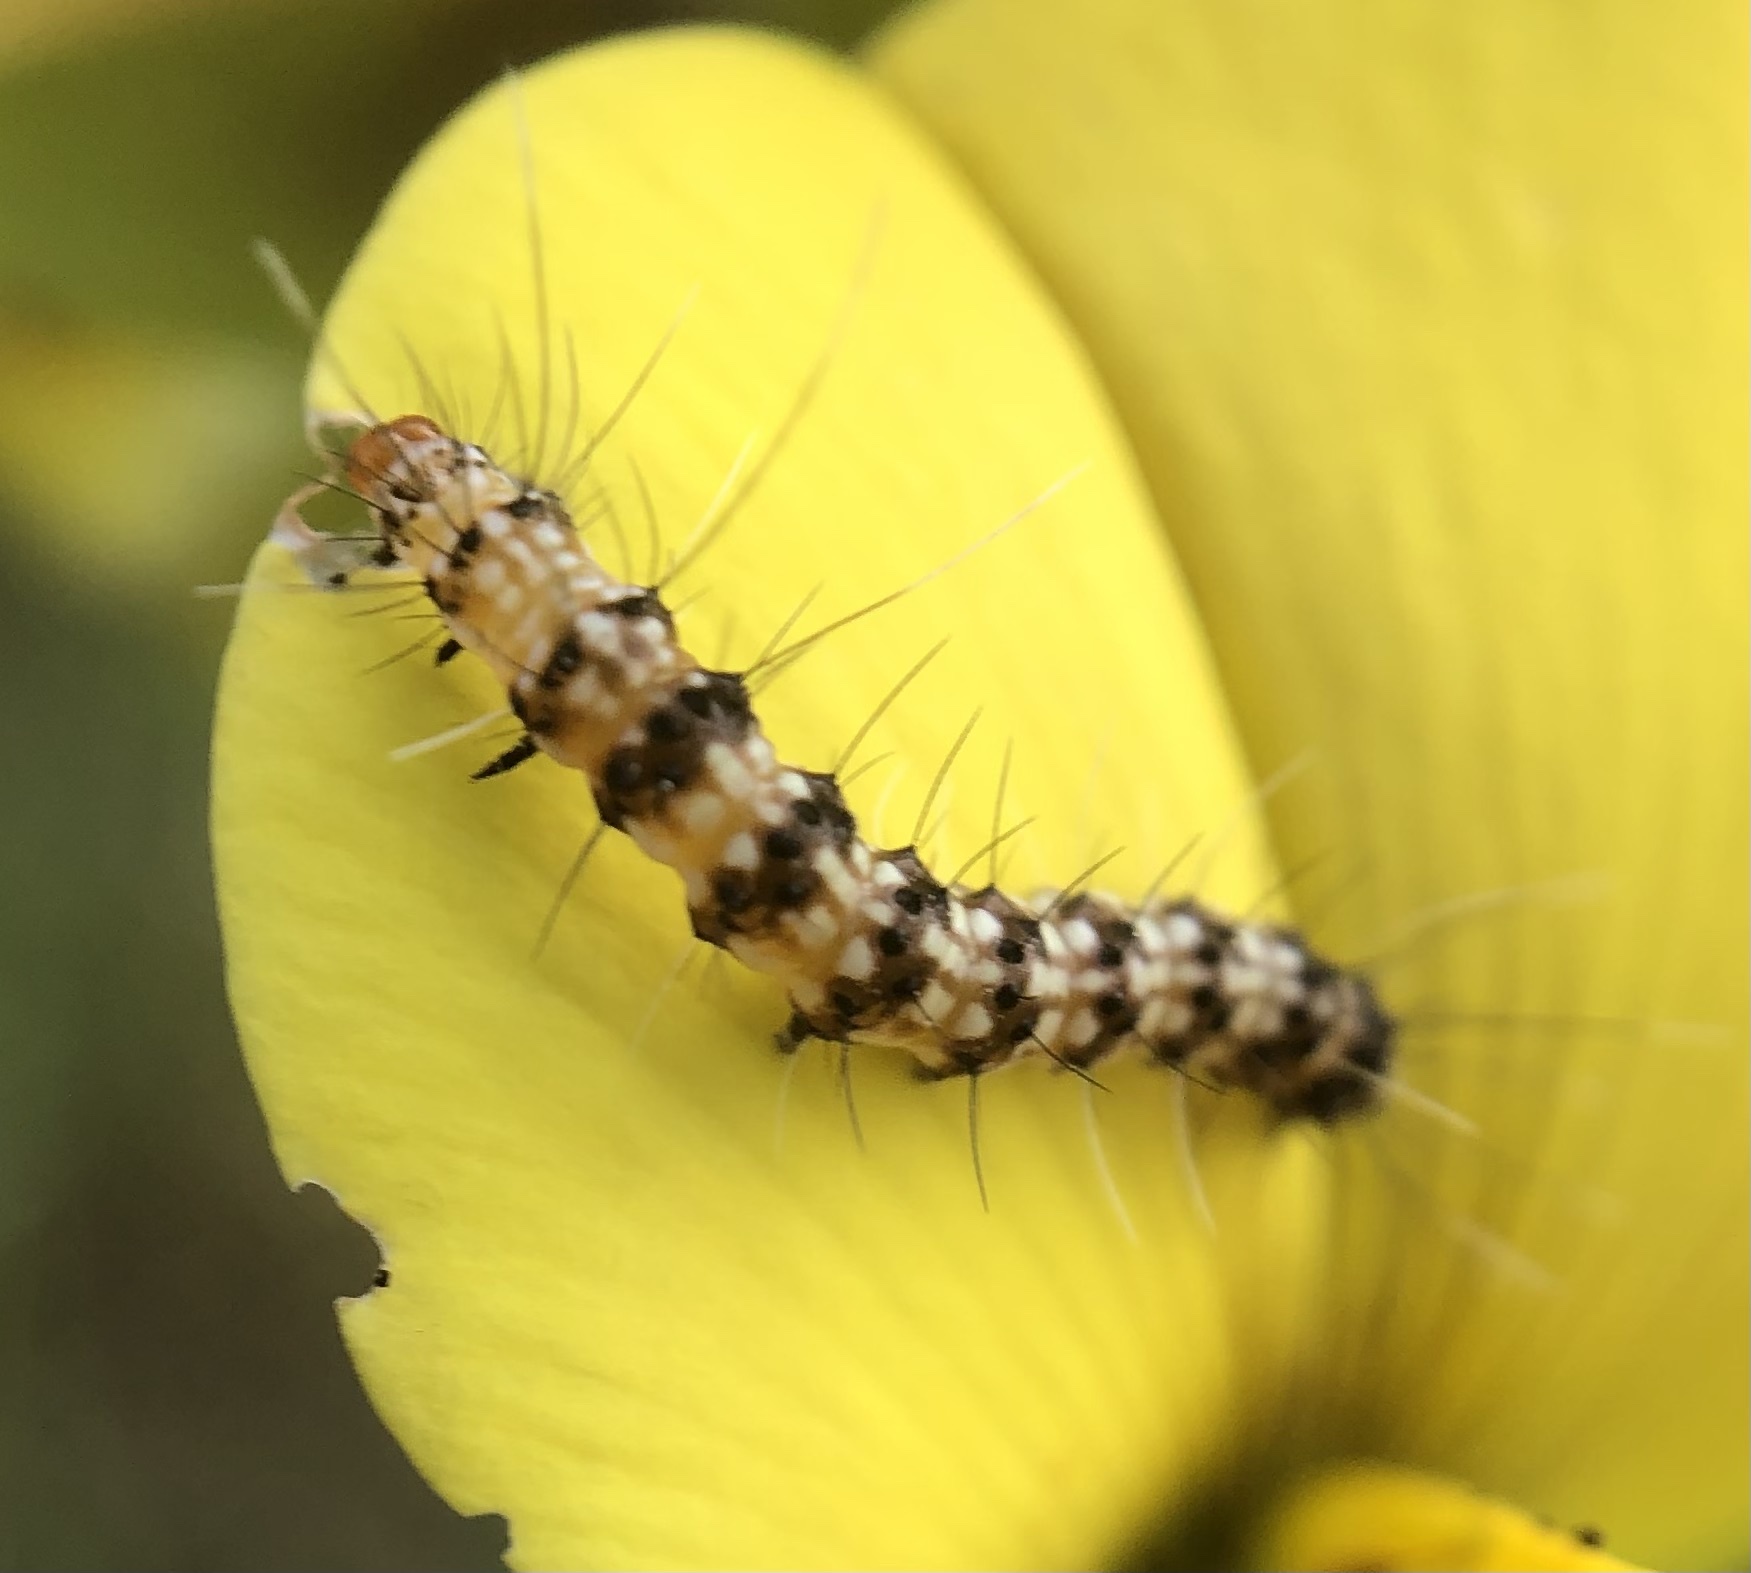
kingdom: Animalia
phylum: Arthropoda
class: Insecta
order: Lepidoptera
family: Erebidae
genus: Utetheisa
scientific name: Utetheisa ornatrix
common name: Beautiful utetheisa
